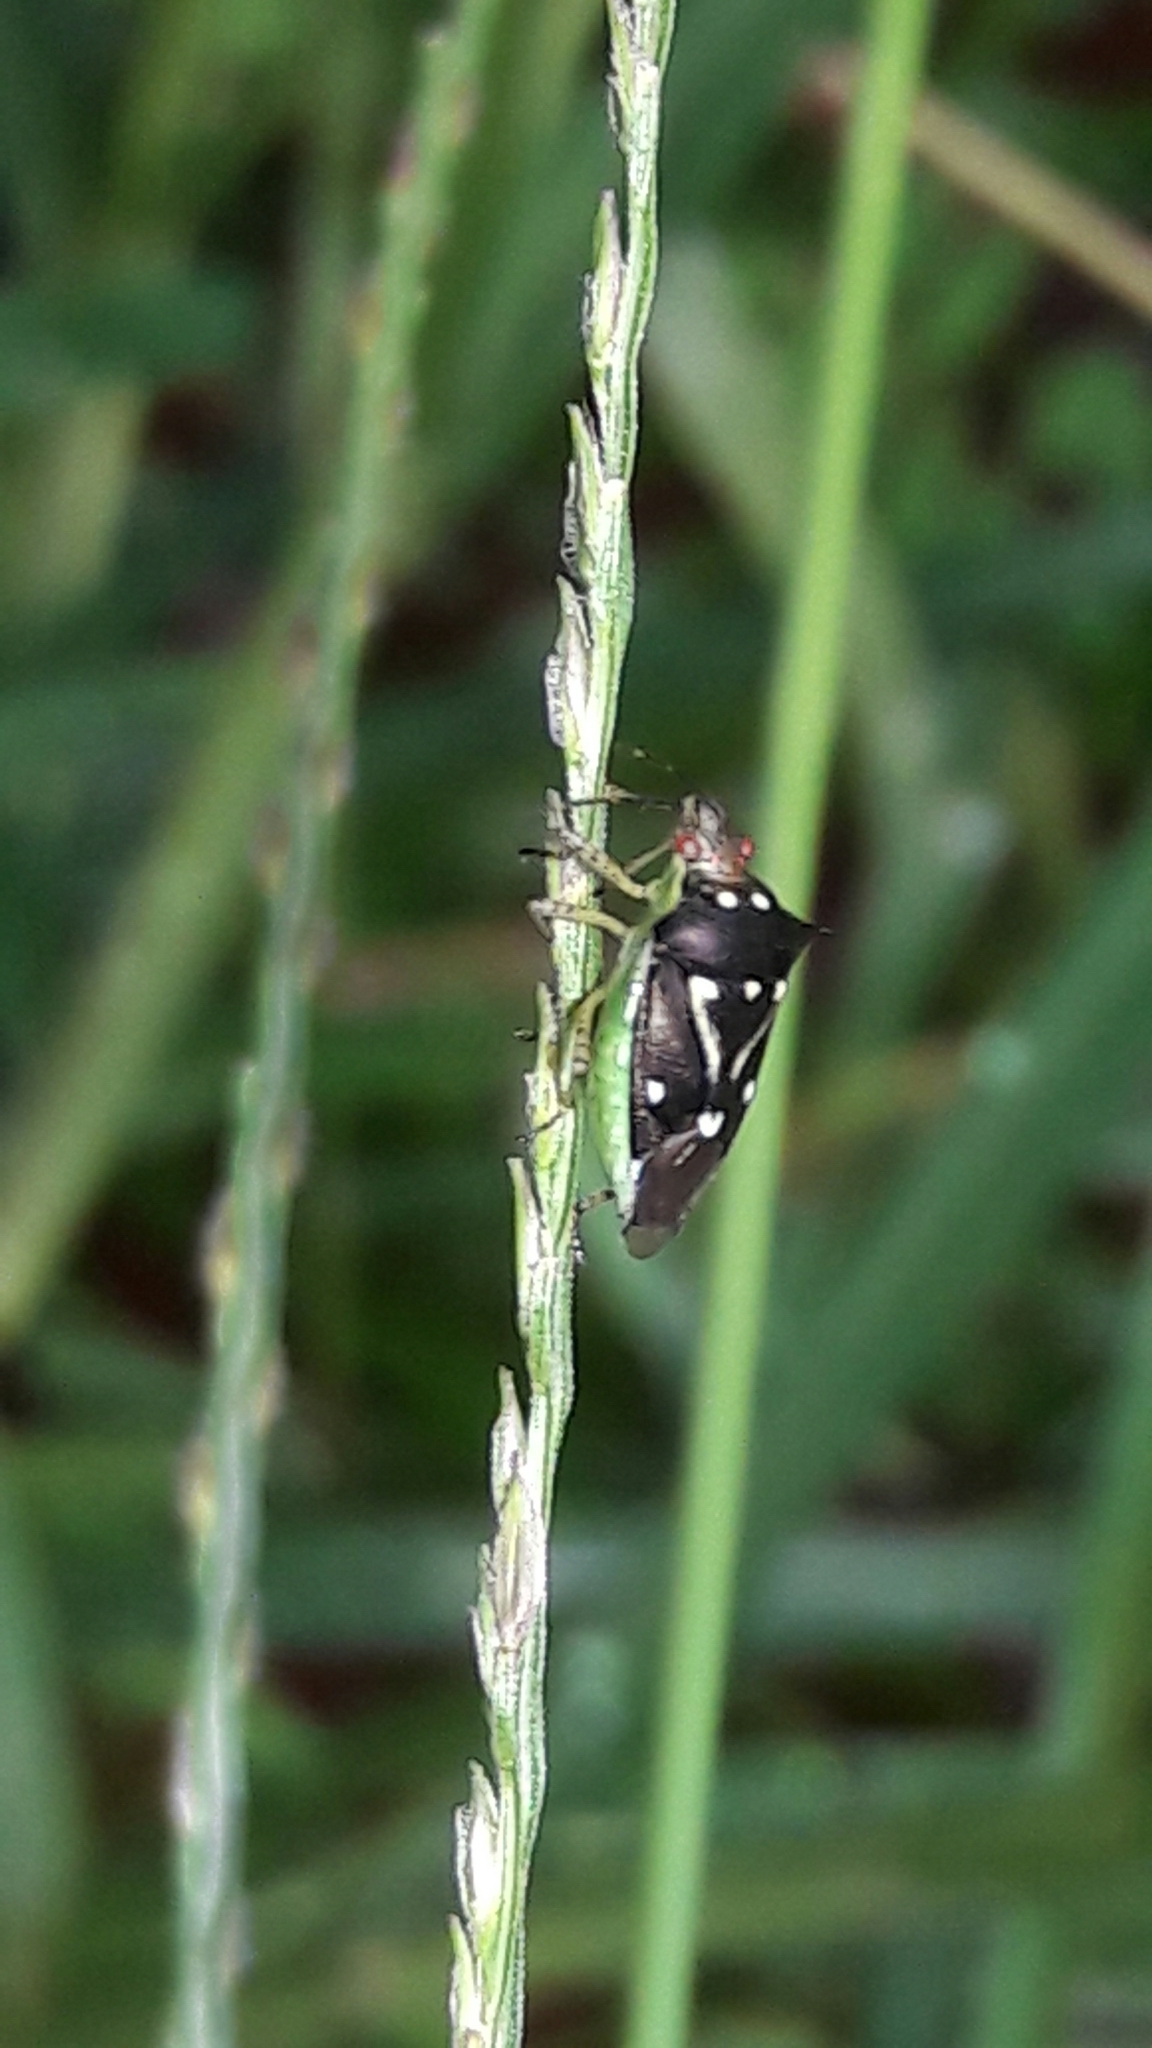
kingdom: Animalia
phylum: Arthropoda
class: Insecta
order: Hemiptera
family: Pentatomidae
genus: Mormidea
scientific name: Mormidea v-luteum
